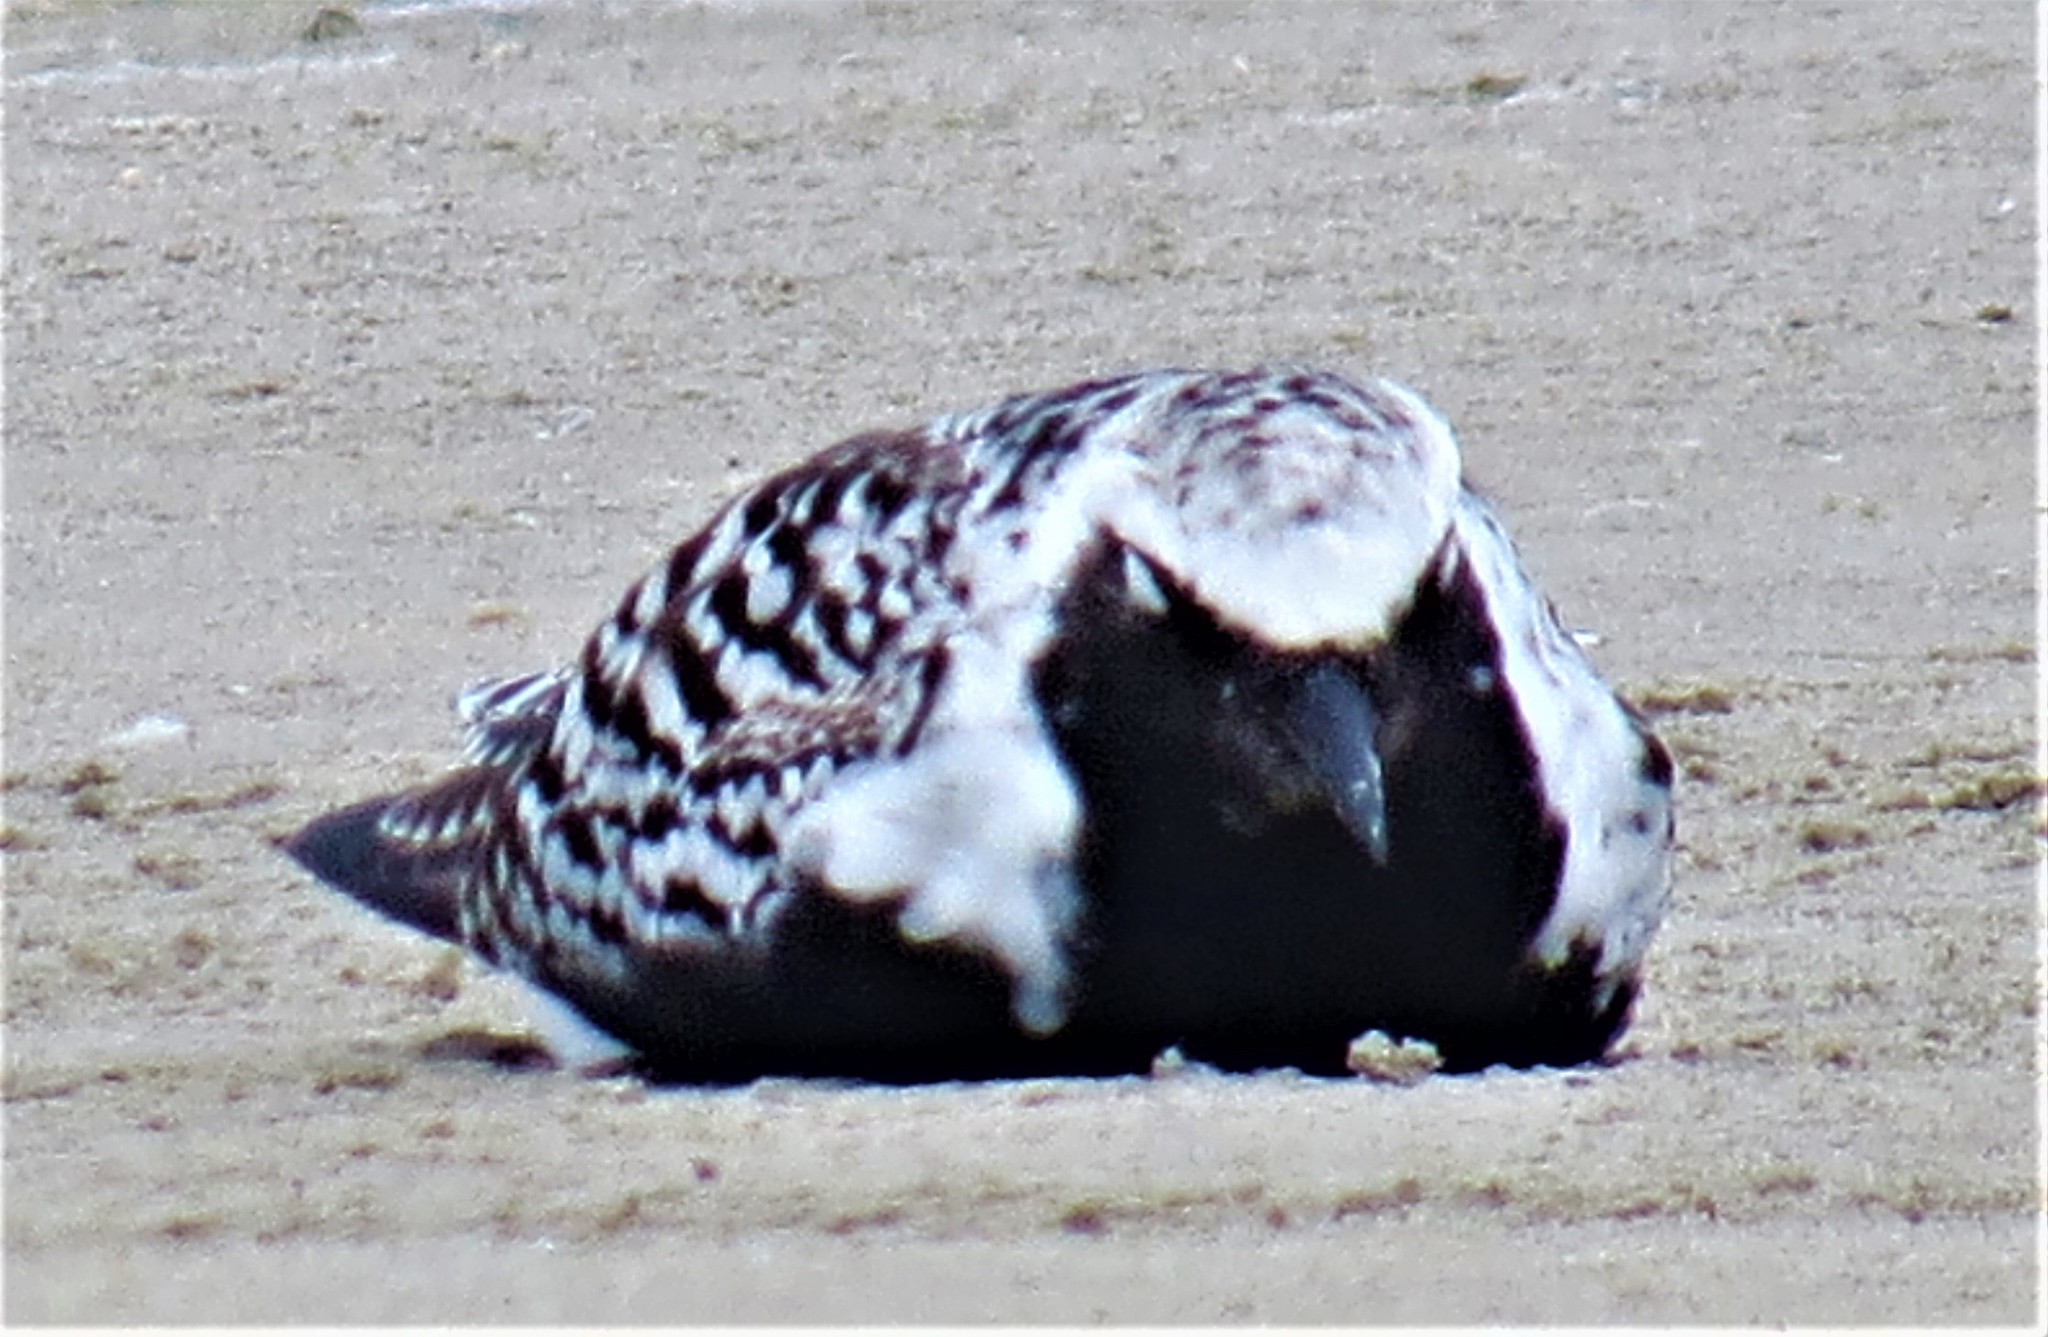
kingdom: Animalia
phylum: Chordata
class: Aves
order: Charadriiformes
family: Charadriidae
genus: Pluvialis
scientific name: Pluvialis squatarola
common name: Grey plover
